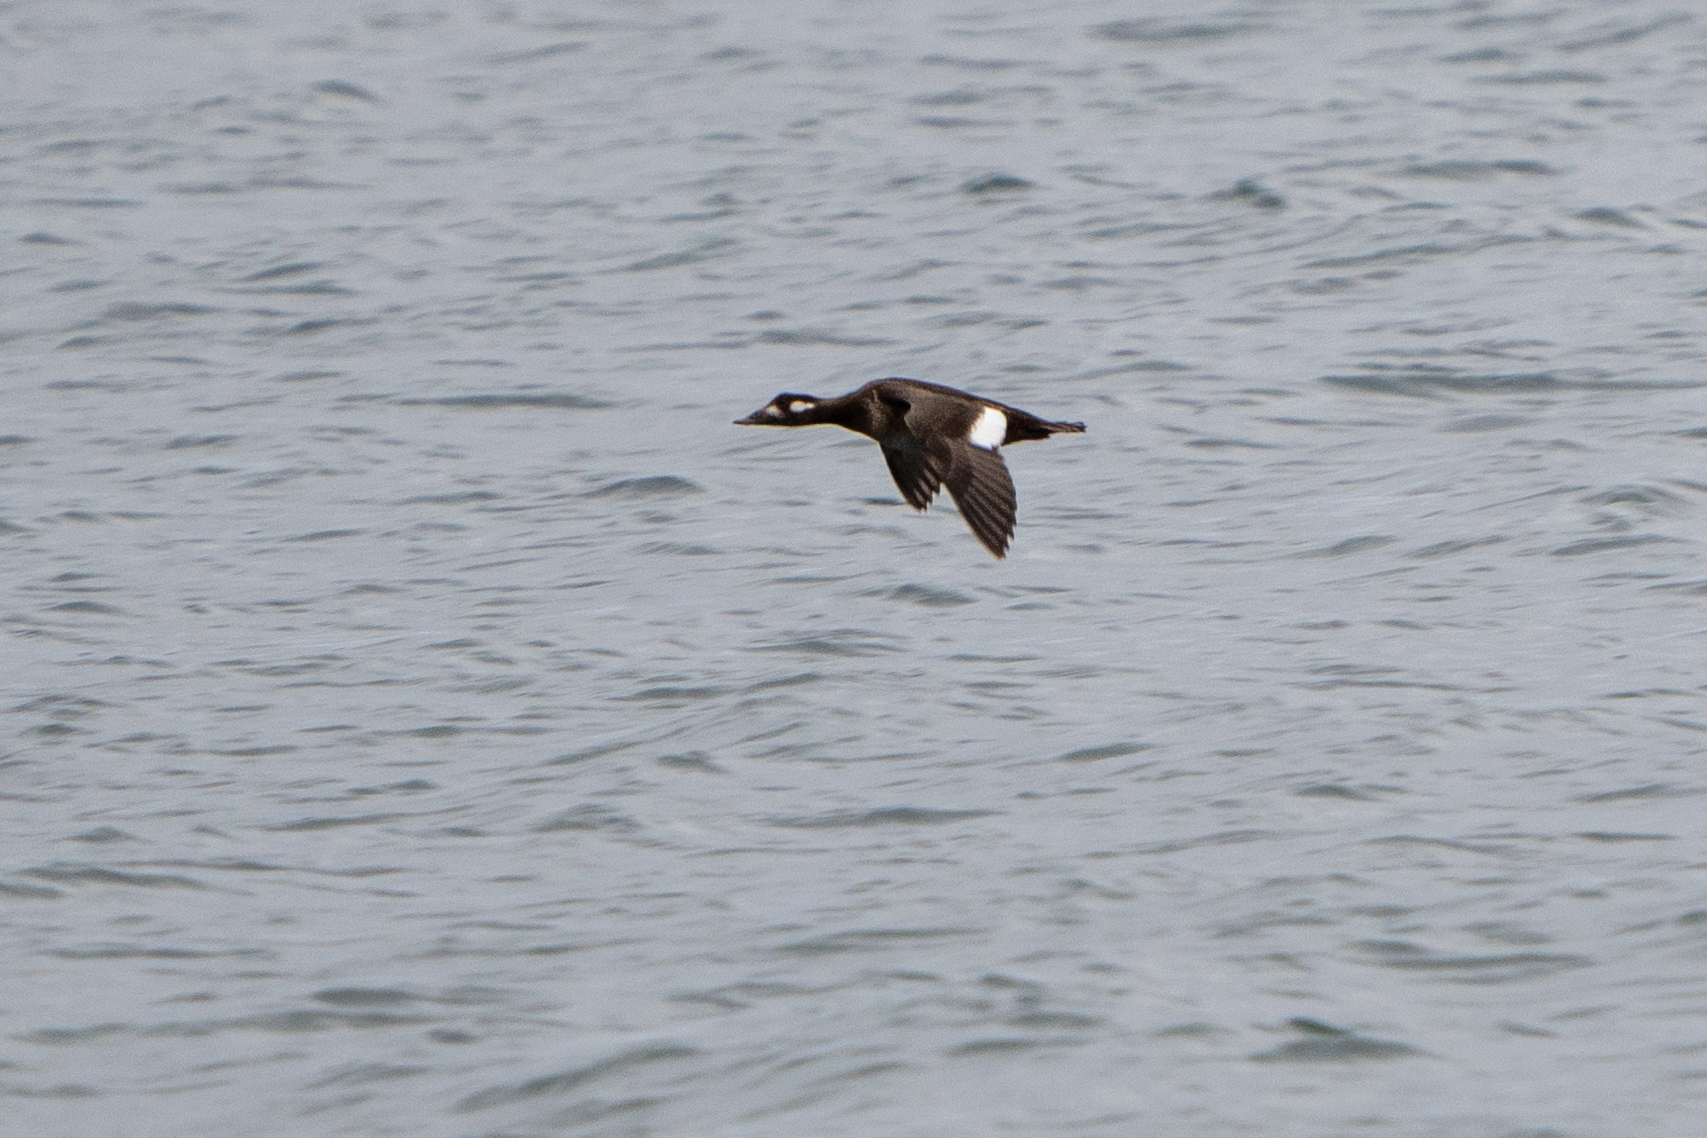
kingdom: Animalia
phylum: Chordata
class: Aves
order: Anseriformes
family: Anatidae
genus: Melanitta
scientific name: Melanitta deglandi
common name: White-winged scoter
